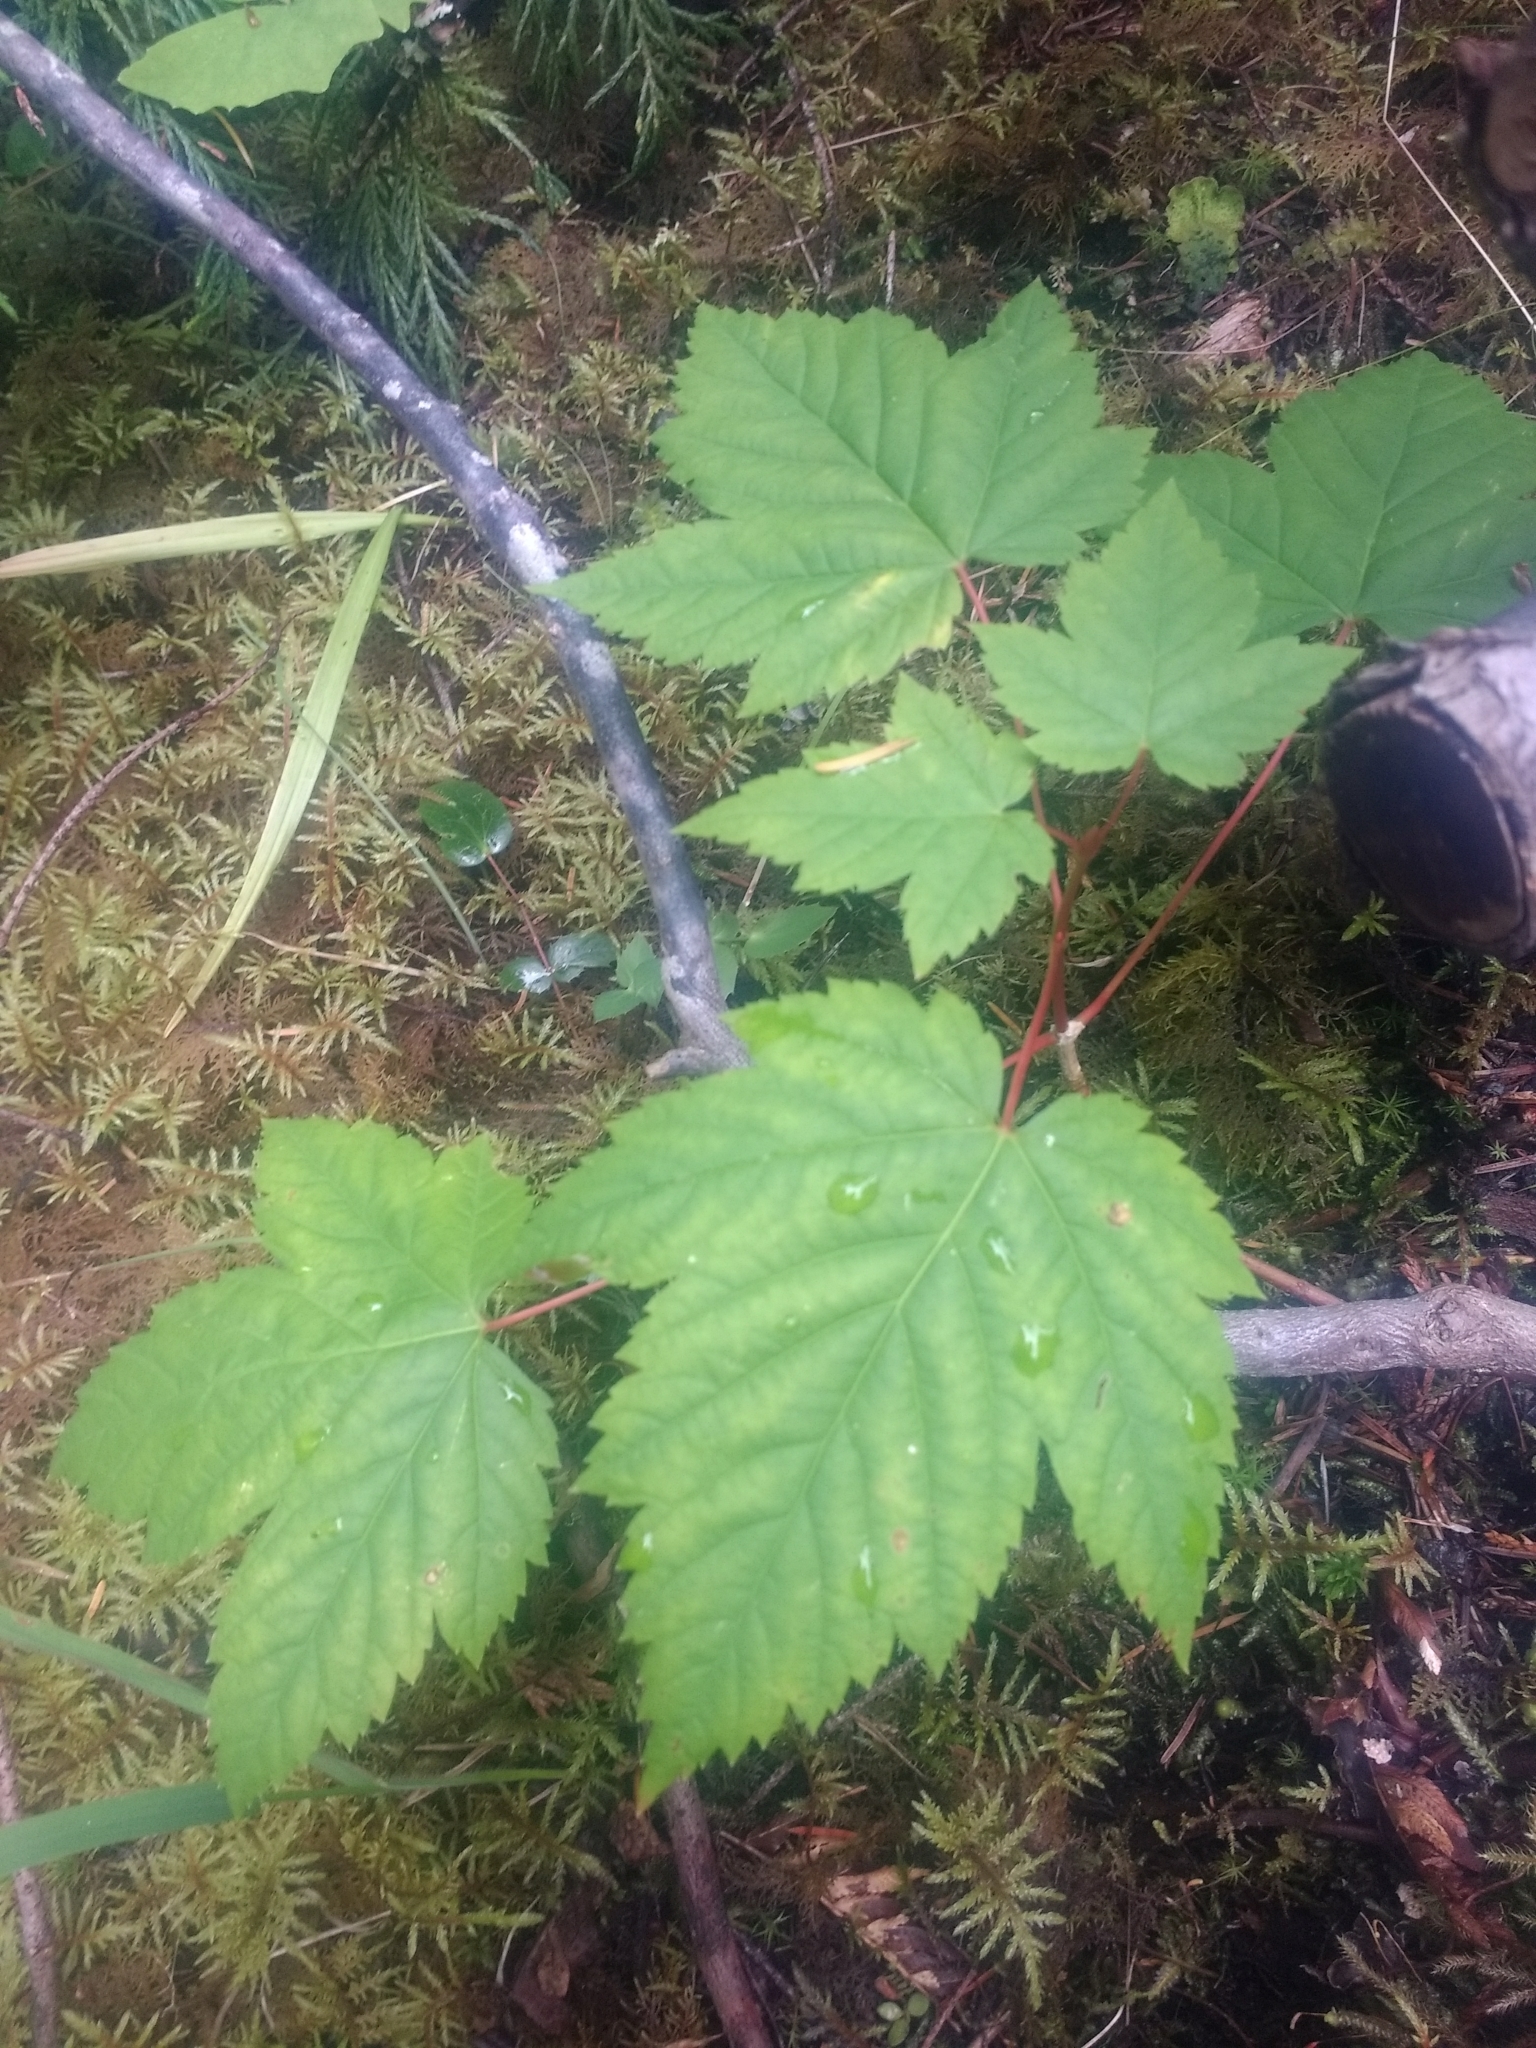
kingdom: Plantae
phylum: Tracheophyta
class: Magnoliopsida
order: Sapindales
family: Sapindaceae
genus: Acer
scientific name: Acer glabrum
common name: Rocky mountain maple
